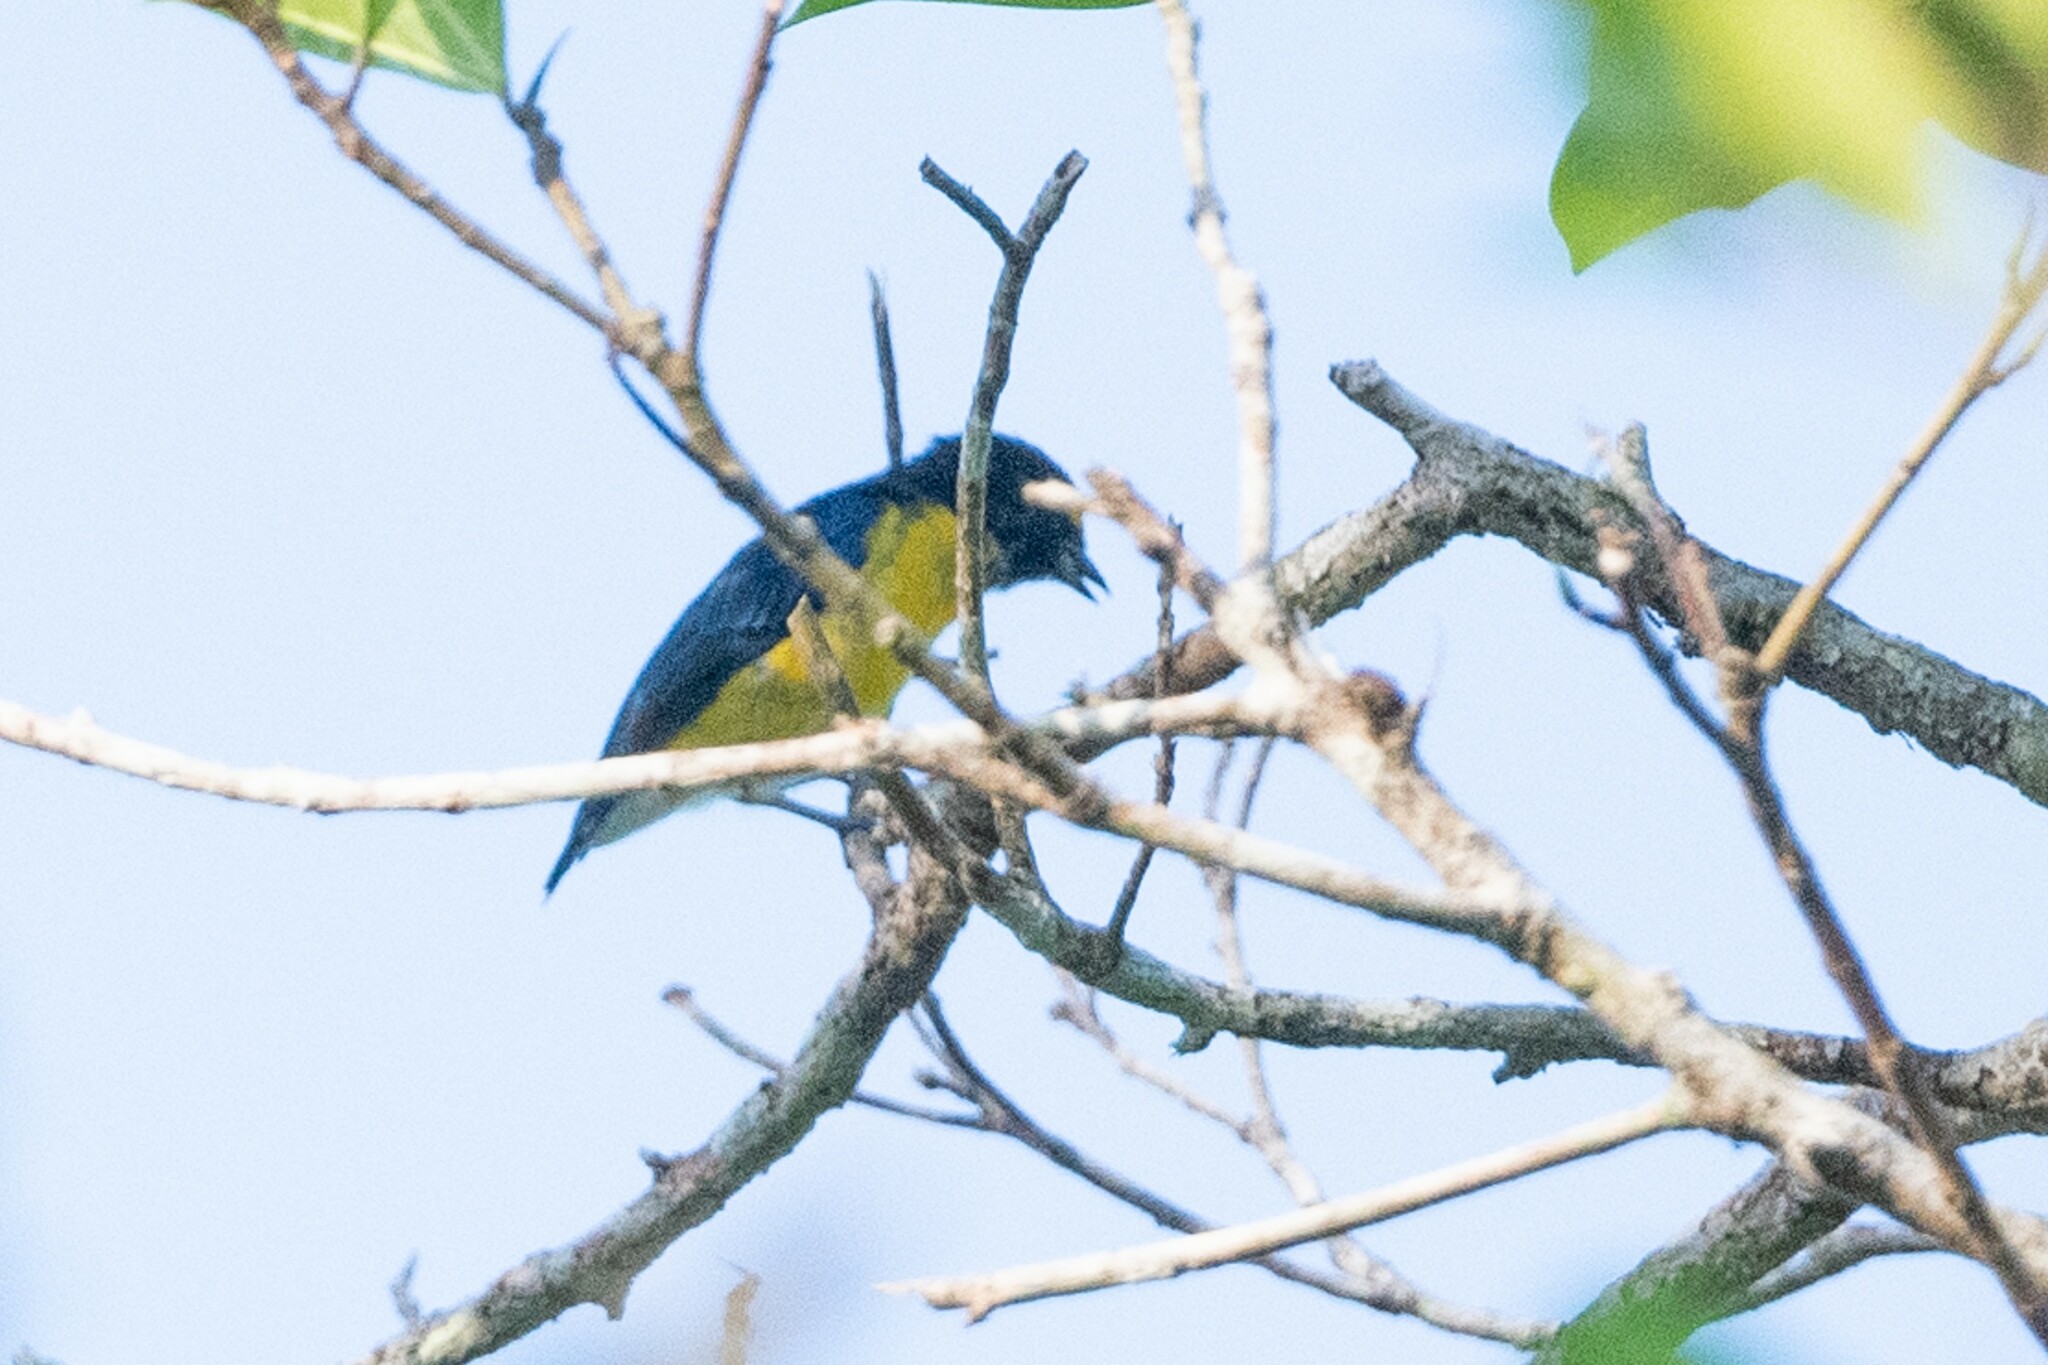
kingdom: Animalia
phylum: Chordata
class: Aves
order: Passeriformes
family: Fringillidae
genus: Euphonia
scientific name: Euphonia minuta
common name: White-vented euphonia
